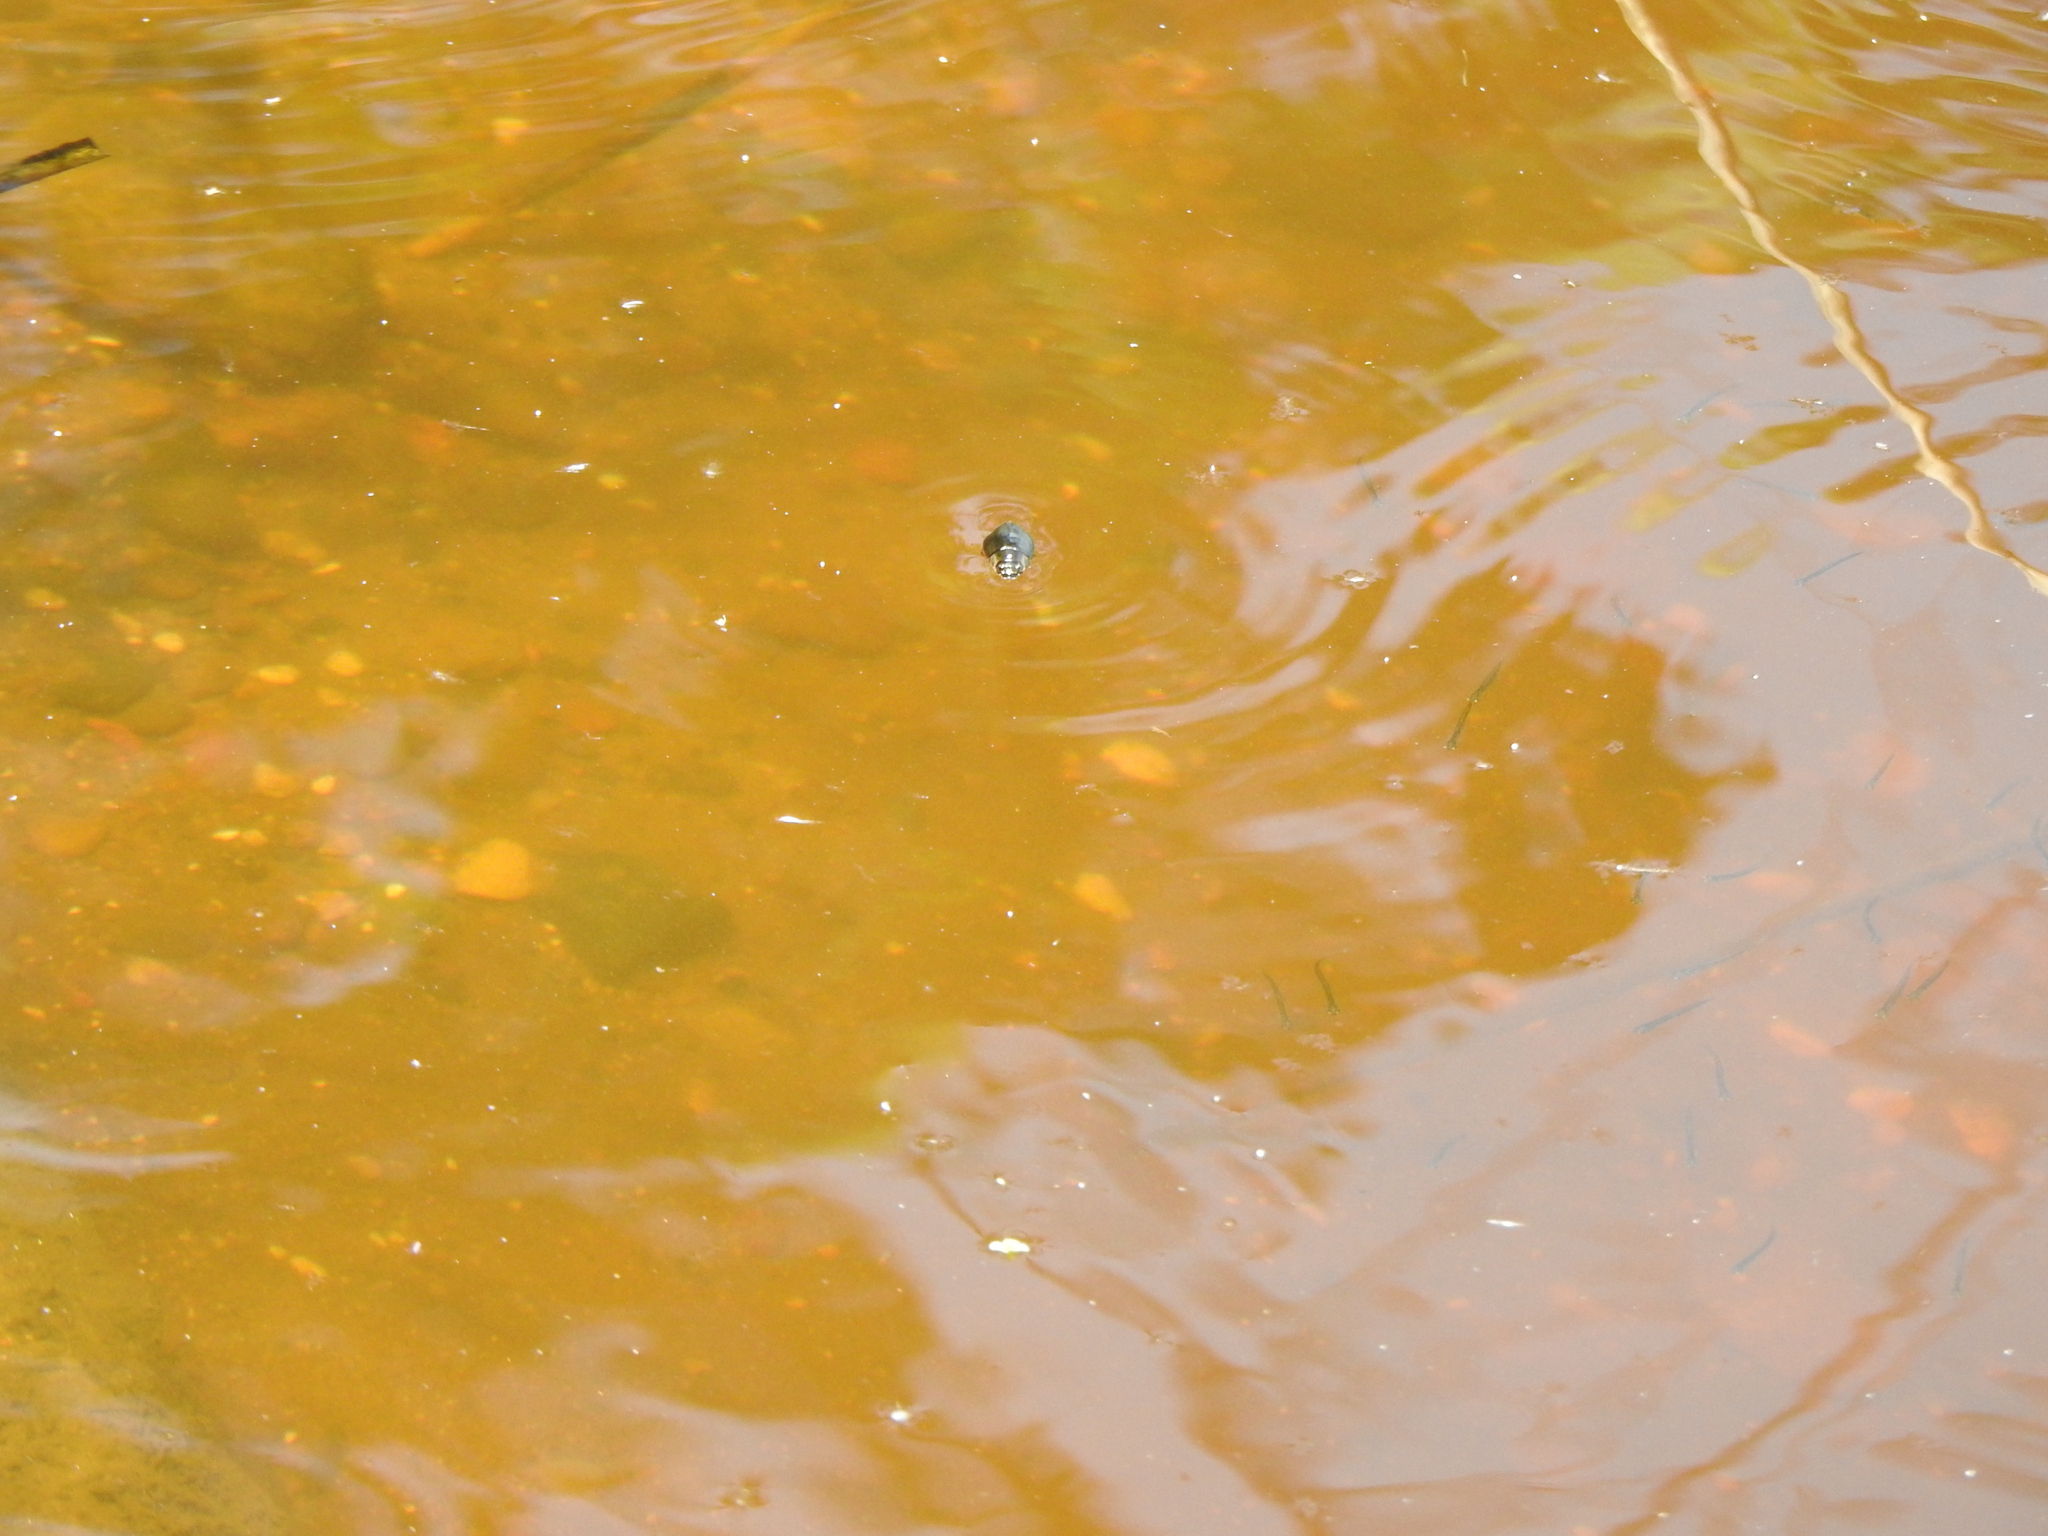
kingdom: Animalia
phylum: Arthropoda
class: Insecta
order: Coleoptera
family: Gyrinidae
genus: Dineutus
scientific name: Dineutus
